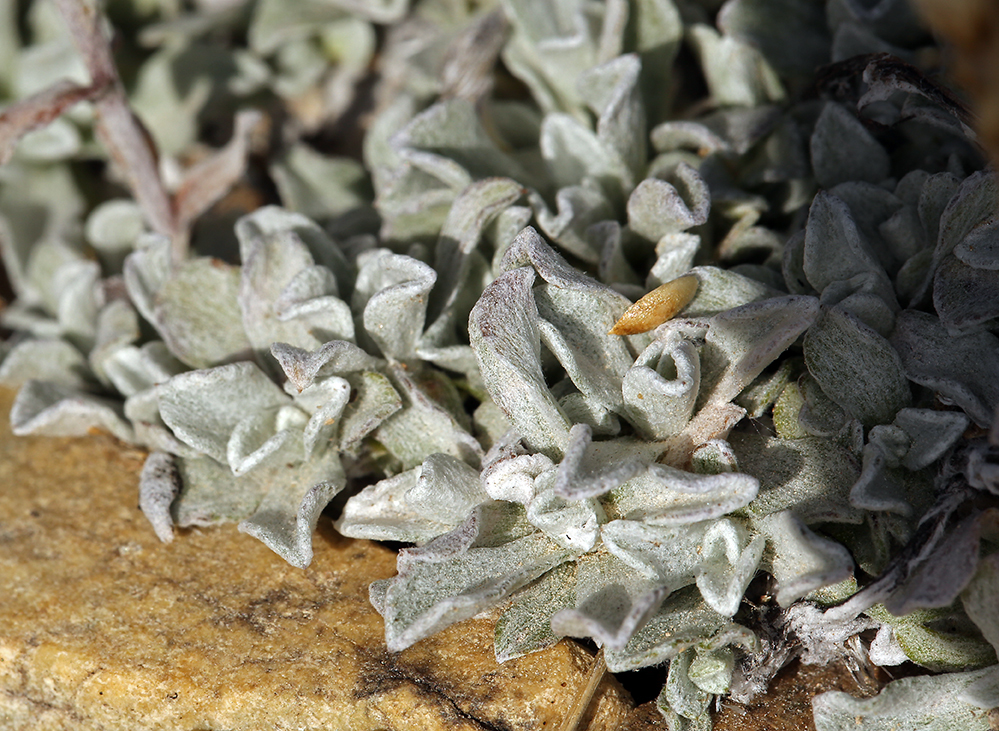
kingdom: Plantae
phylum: Tracheophyta
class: Magnoliopsida
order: Asterales
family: Asteraceae
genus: Antennaria
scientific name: Antennaria media
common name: Rocky mountain pussytoes
